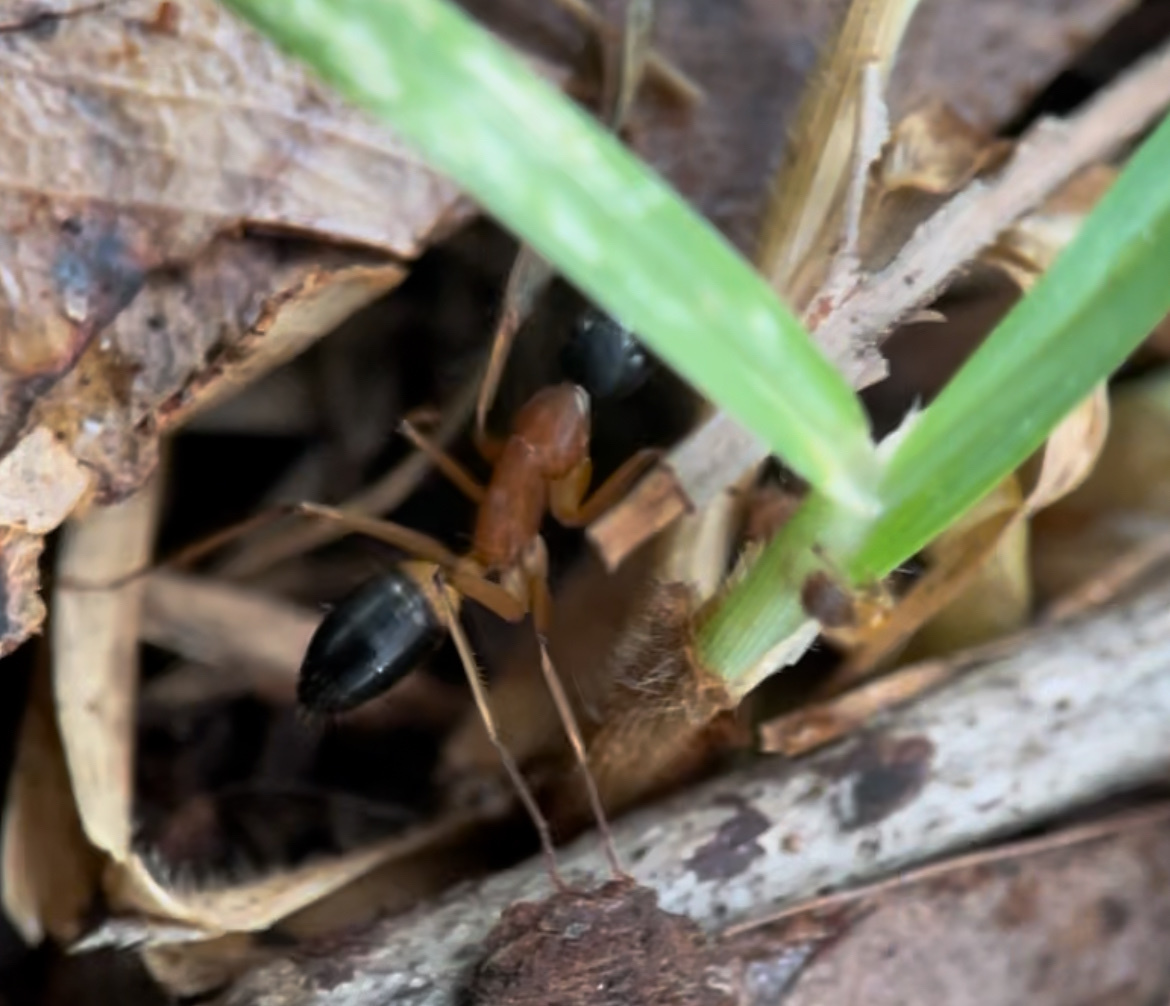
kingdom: Animalia
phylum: Arthropoda
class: Insecta
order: Hymenoptera
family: Formicidae
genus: Camponotus
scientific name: Camponotus consobrinus
